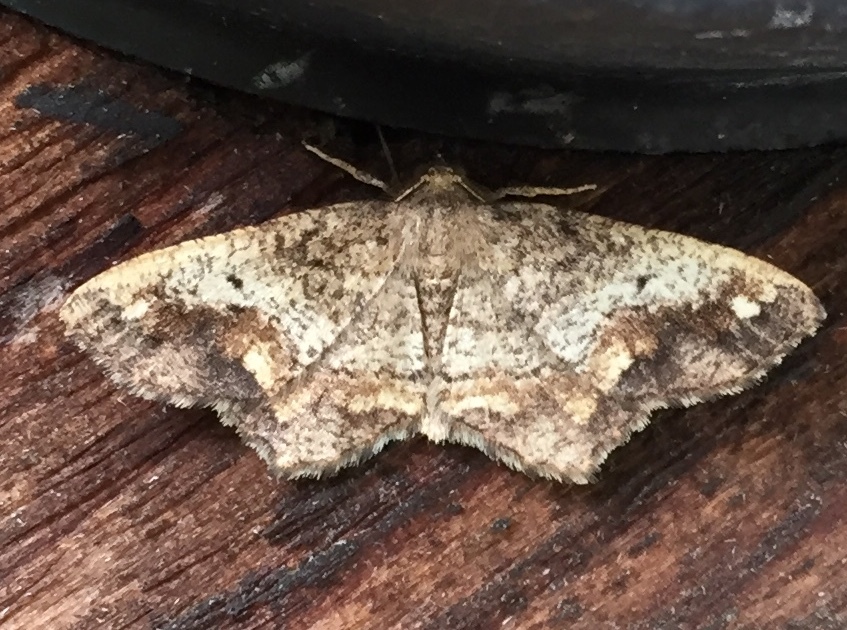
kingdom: Animalia
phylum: Arthropoda
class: Insecta
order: Lepidoptera
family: Geometridae
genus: Hypagyrtis
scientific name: Hypagyrtis unipunctata
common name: One-spotted variant
